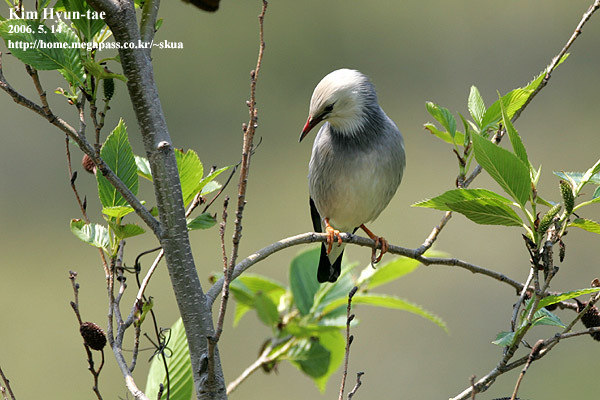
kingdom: Animalia
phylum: Chordata
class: Aves
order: Passeriformes
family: Sturnidae
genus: Spodiopsar
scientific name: Spodiopsar sericeus
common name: Red-billed starling
